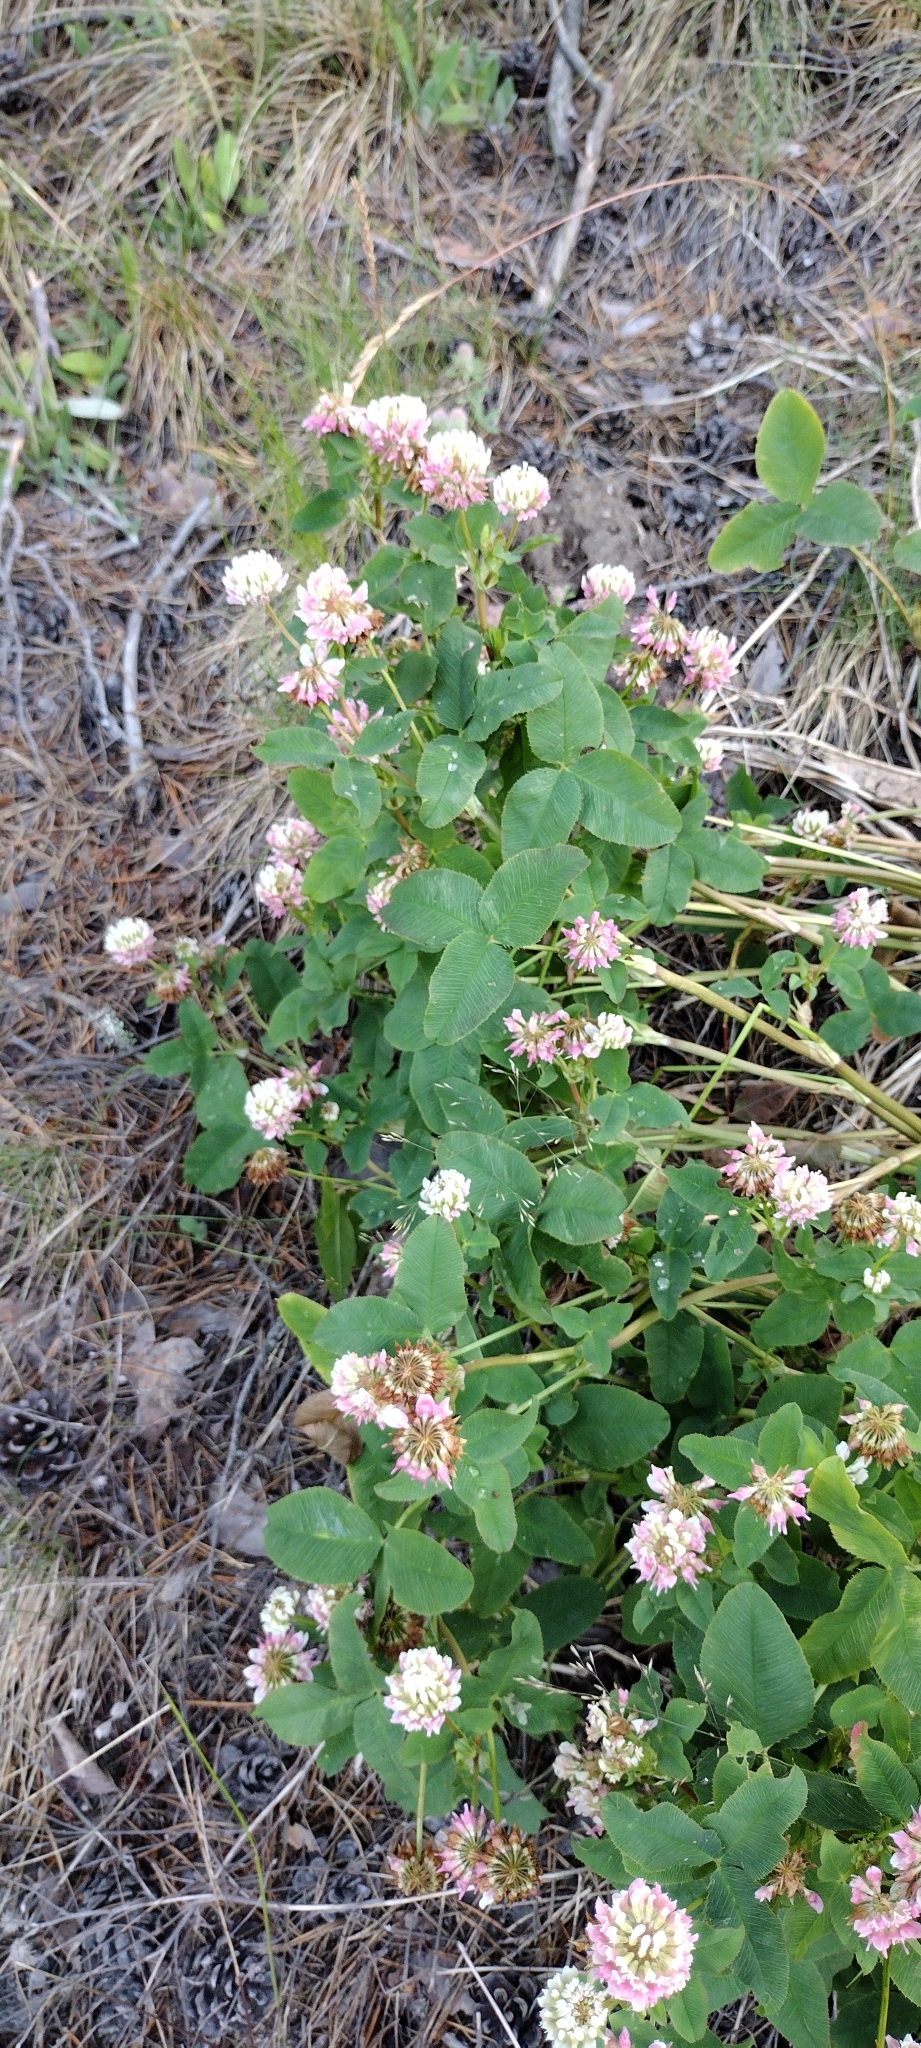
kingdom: Plantae
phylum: Tracheophyta
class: Magnoliopsida
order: Fabales
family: Fabaceae
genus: Trifolium
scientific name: Trifolium hybridum
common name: Alsike clover
